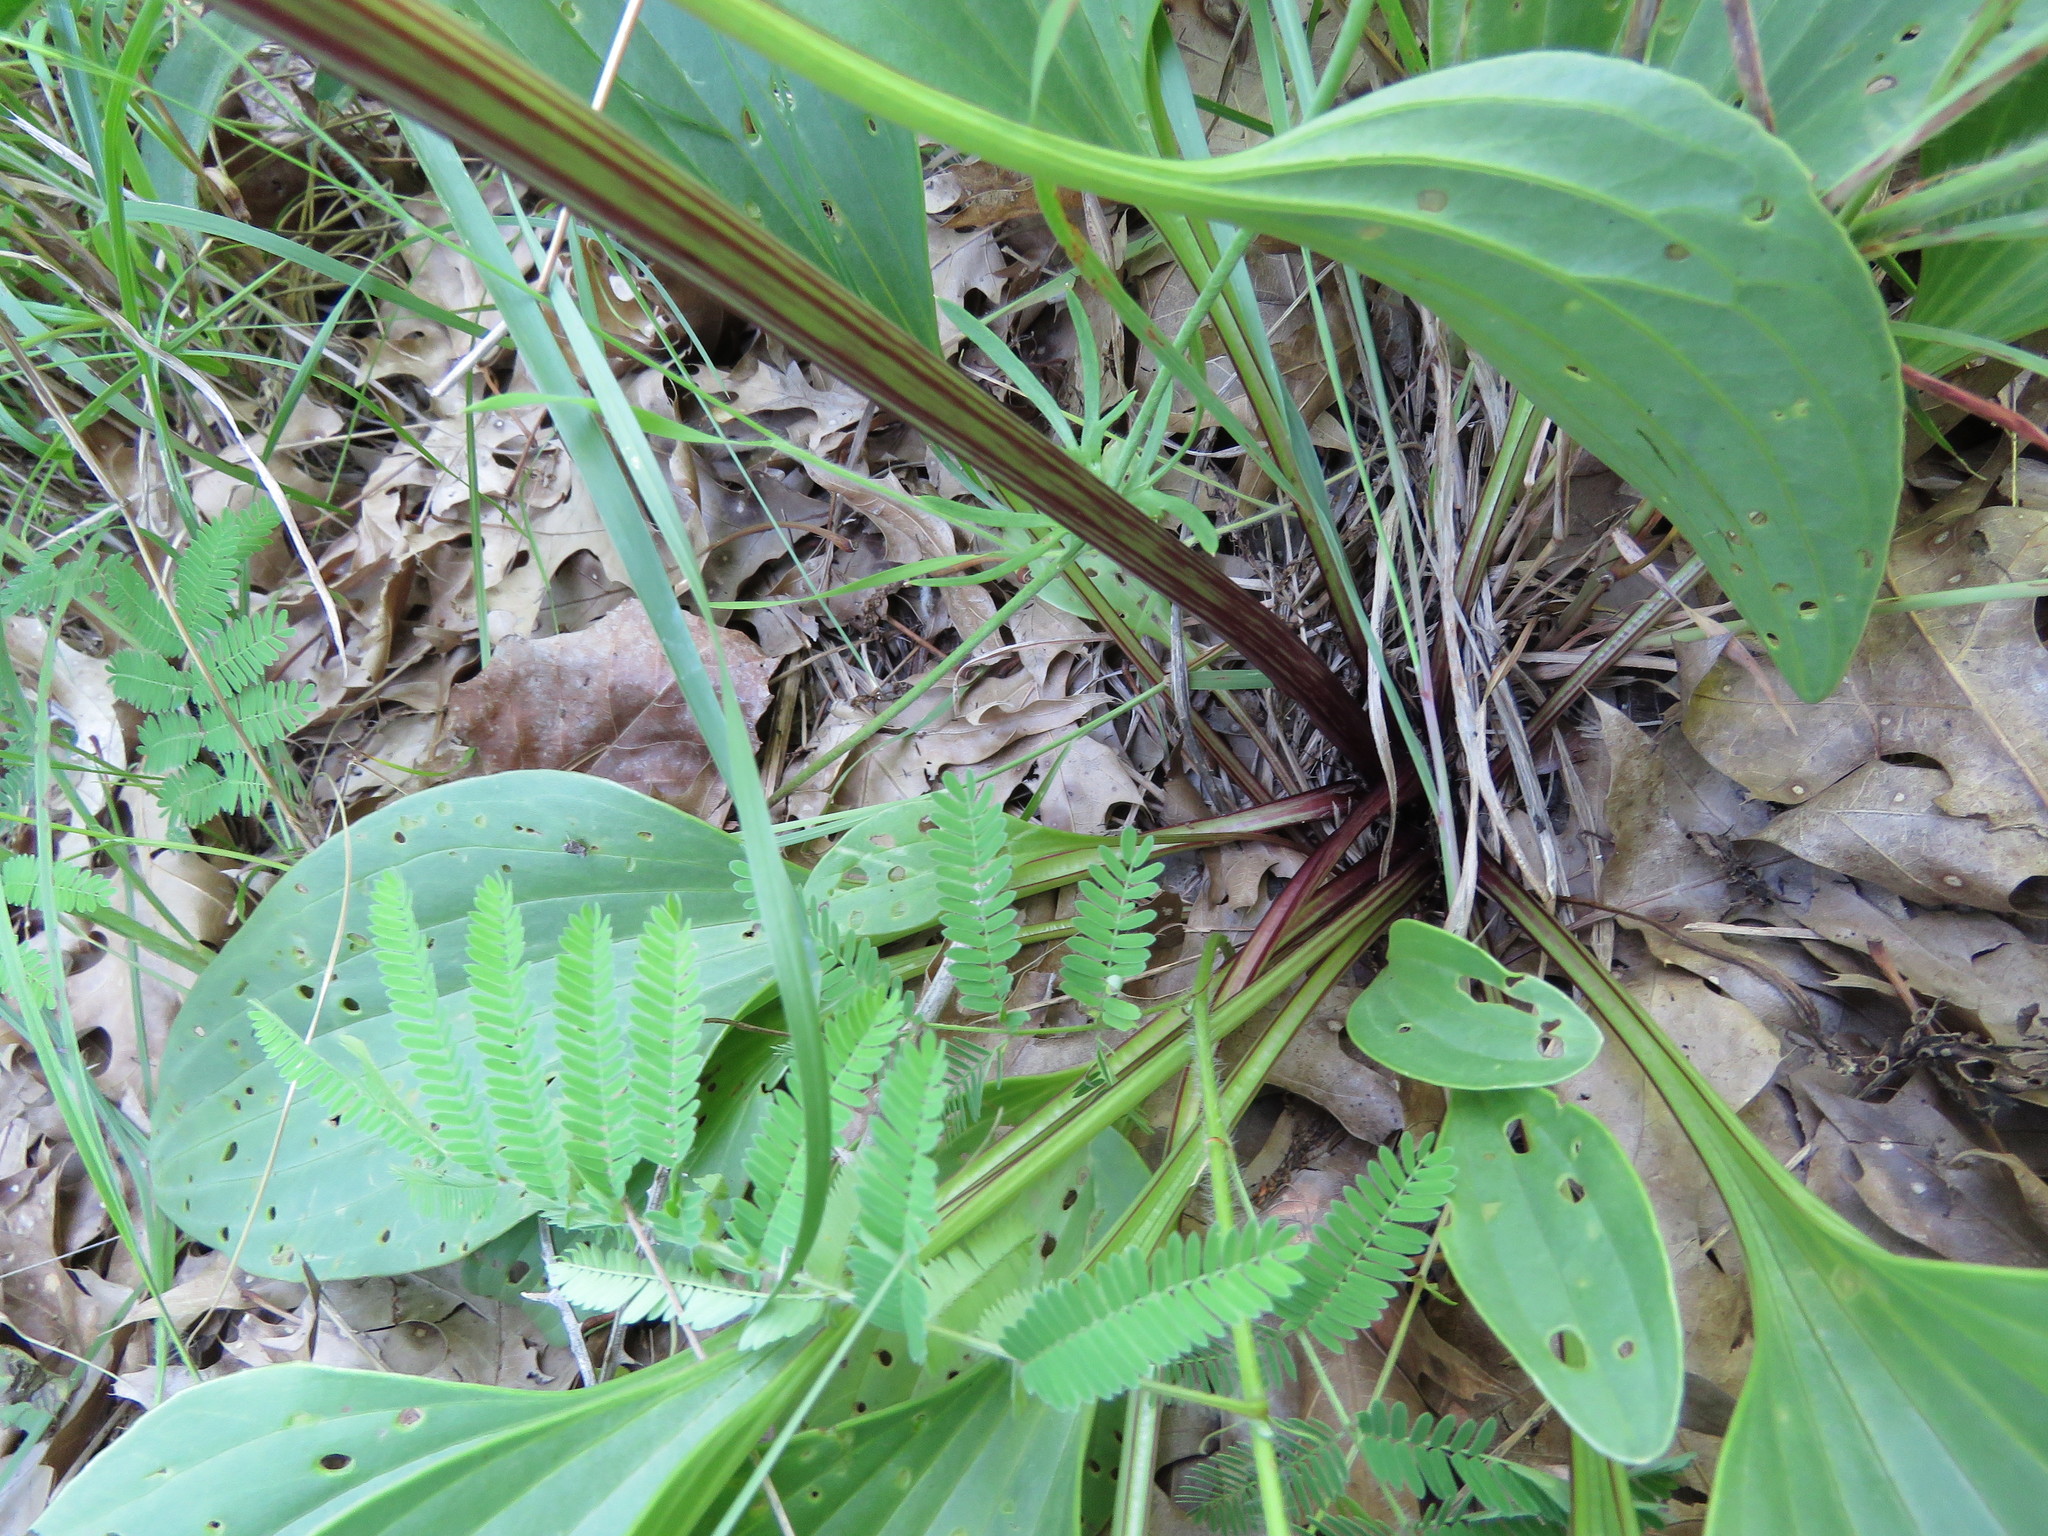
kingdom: Plantae
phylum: Tracheophyta
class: Magnoliopsida
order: Asterales
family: Asteraceae
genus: Arnoglossum
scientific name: Arnoglossum plantagineum
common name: Groove-stemmed indian-plantain
